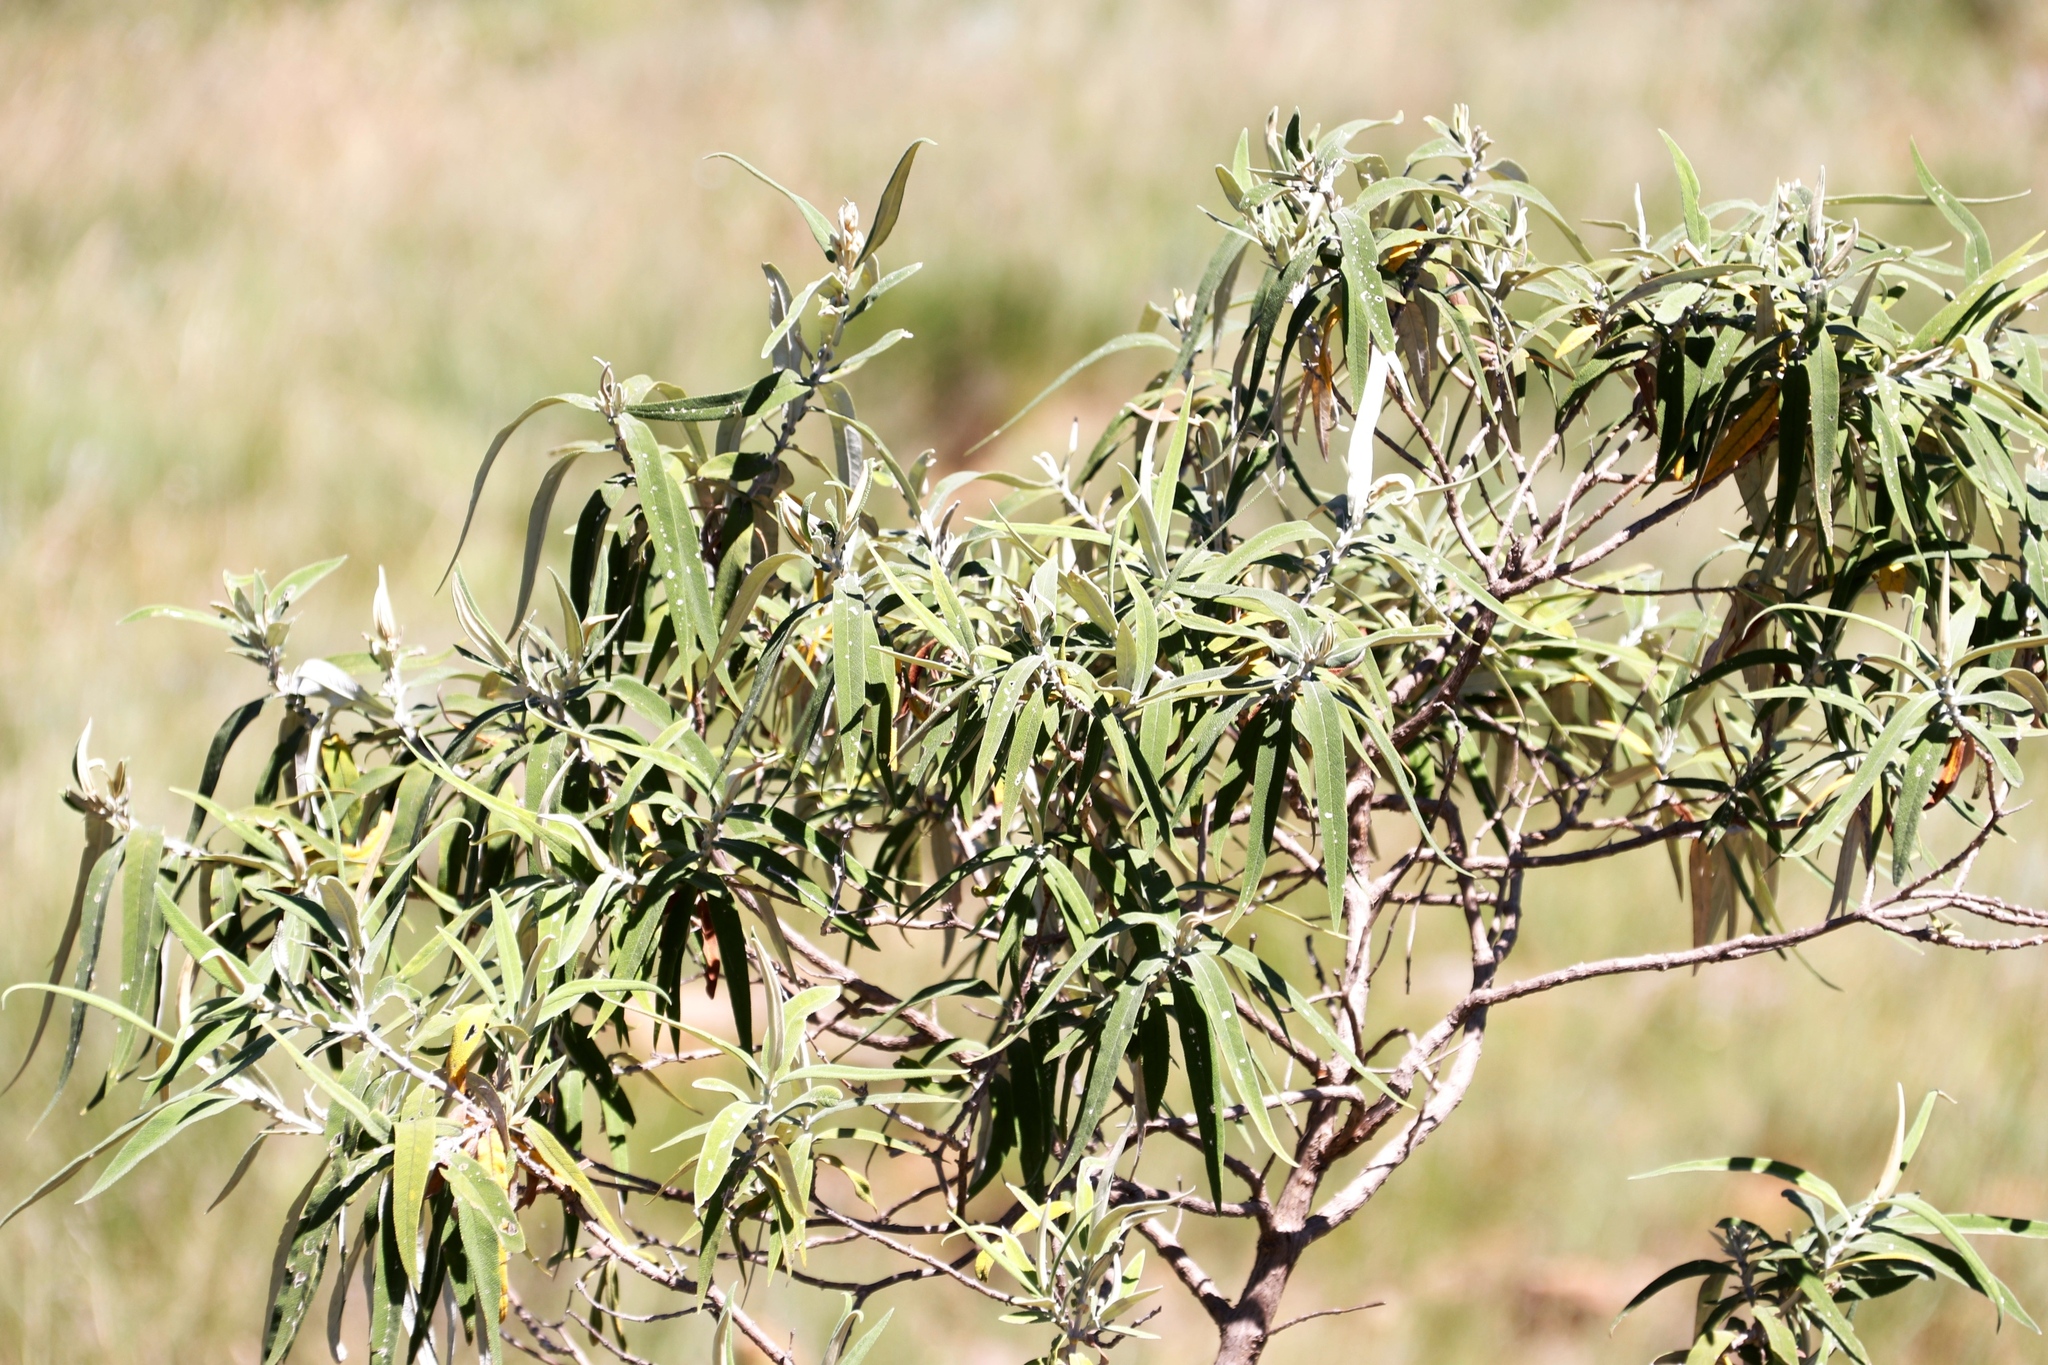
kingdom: Plantae
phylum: Tracheophyta
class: Magnoliopsida
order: Lamiales
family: Scrophulariaceae
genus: Buddleja
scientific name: Buddleja salviifolia
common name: Sagewood
